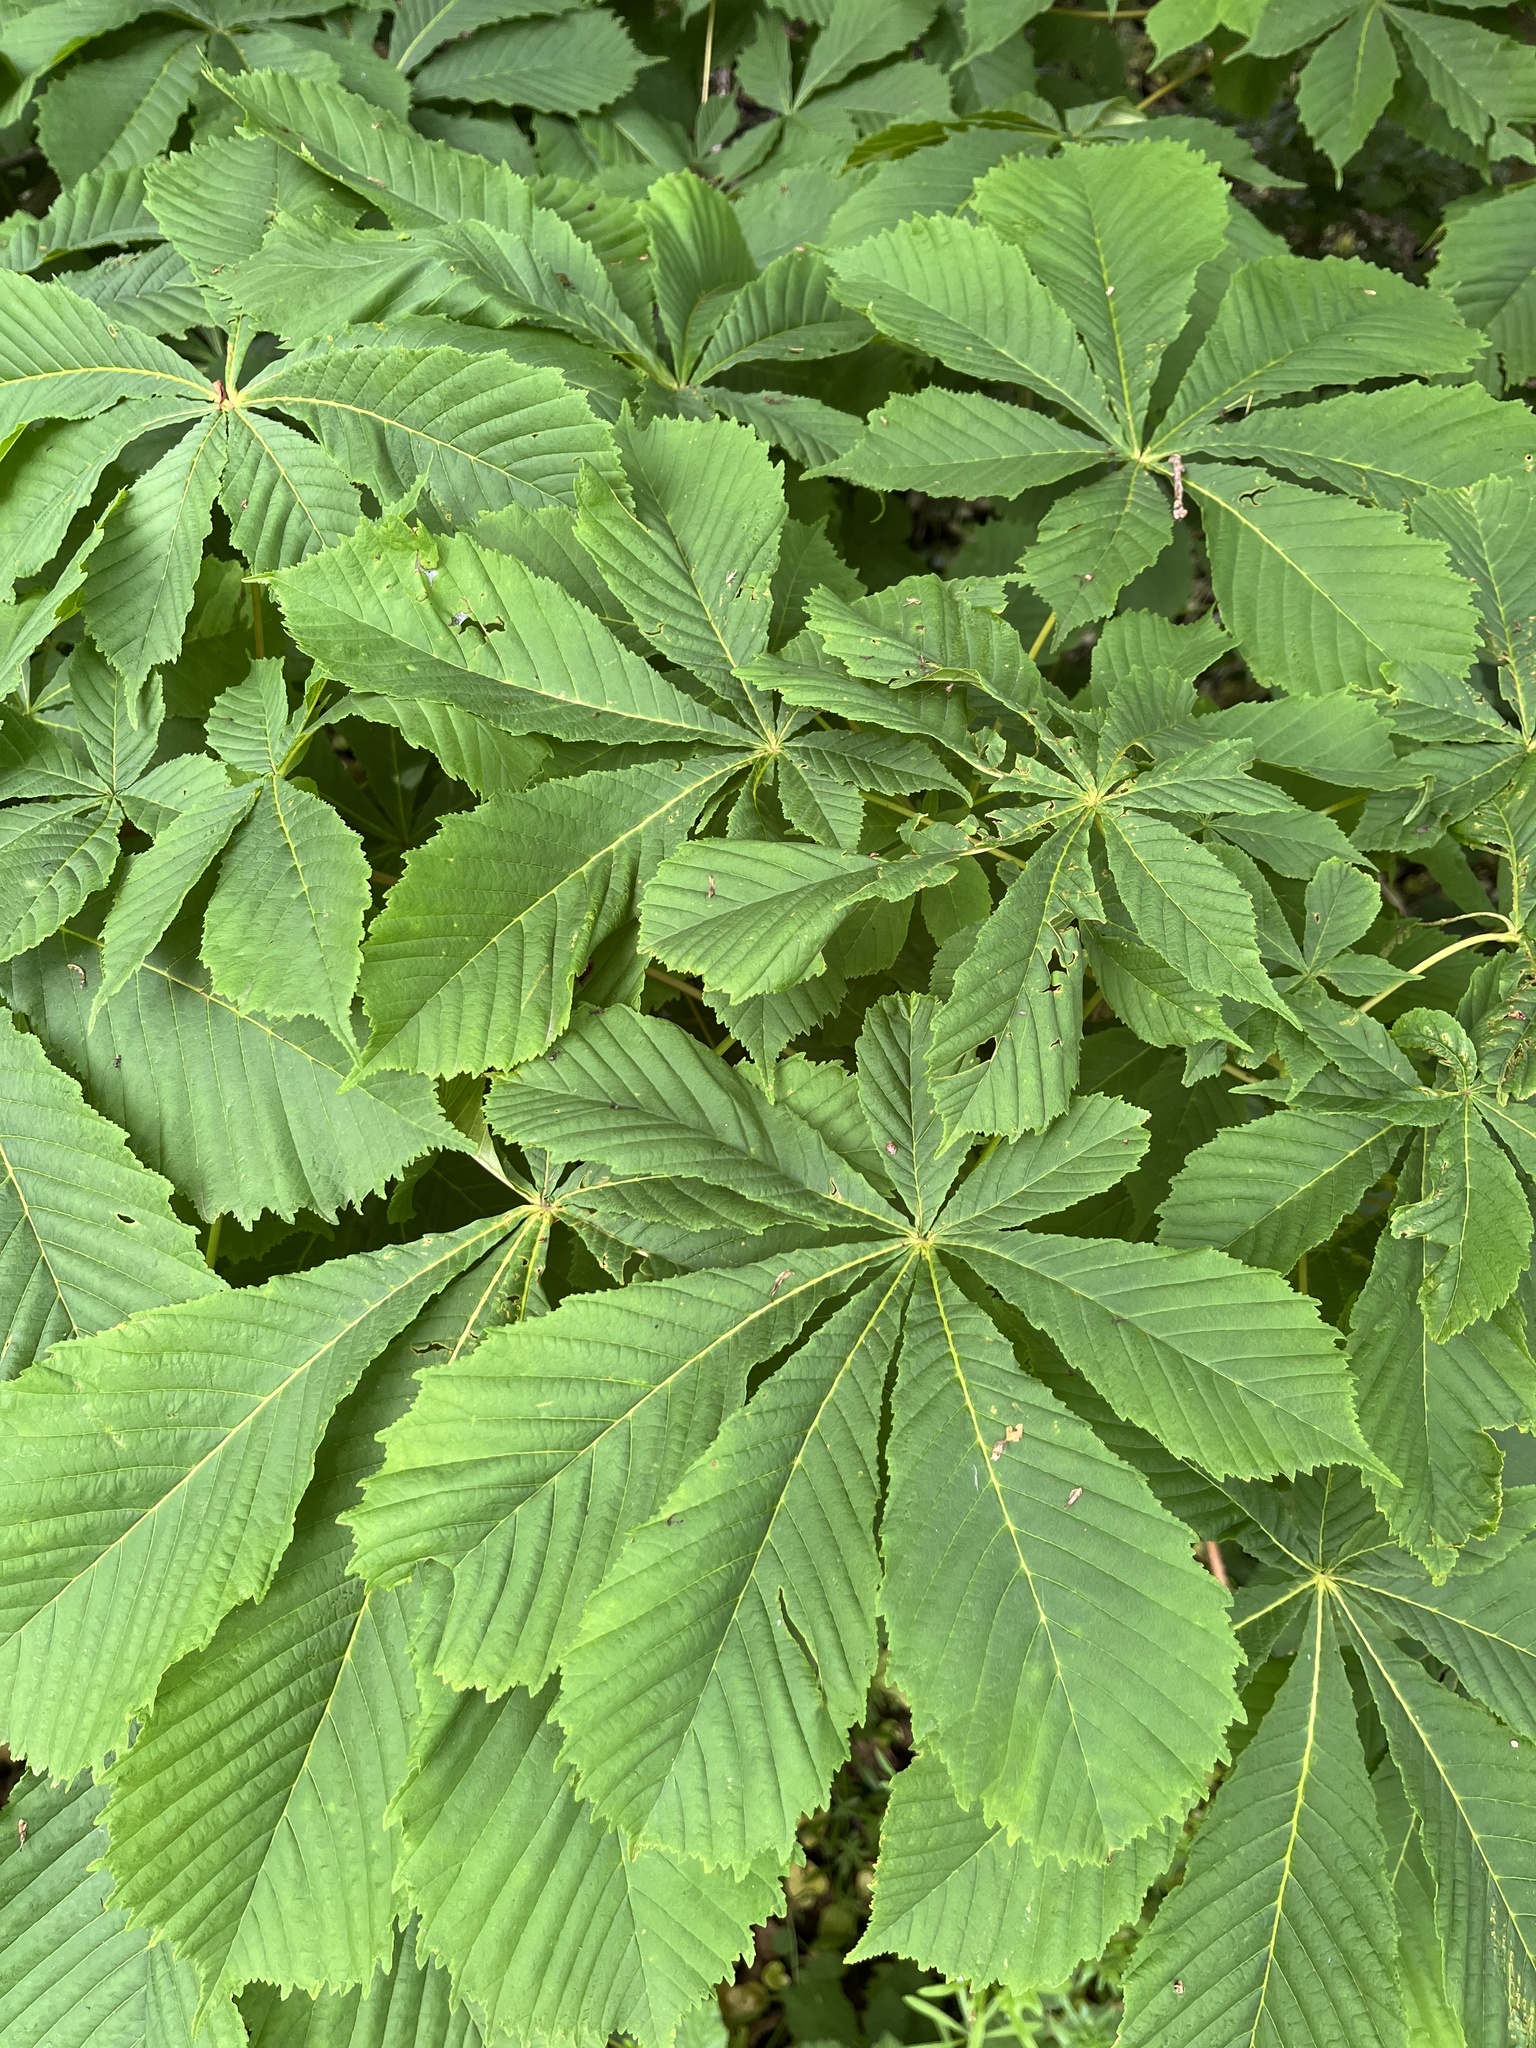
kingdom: Plantae
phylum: Tracheophyta
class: Magnoliopsida
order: Sapindales
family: Sapindaceae
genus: Aesculus
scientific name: Aesculus hippocastanum
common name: Horse-chestnut
